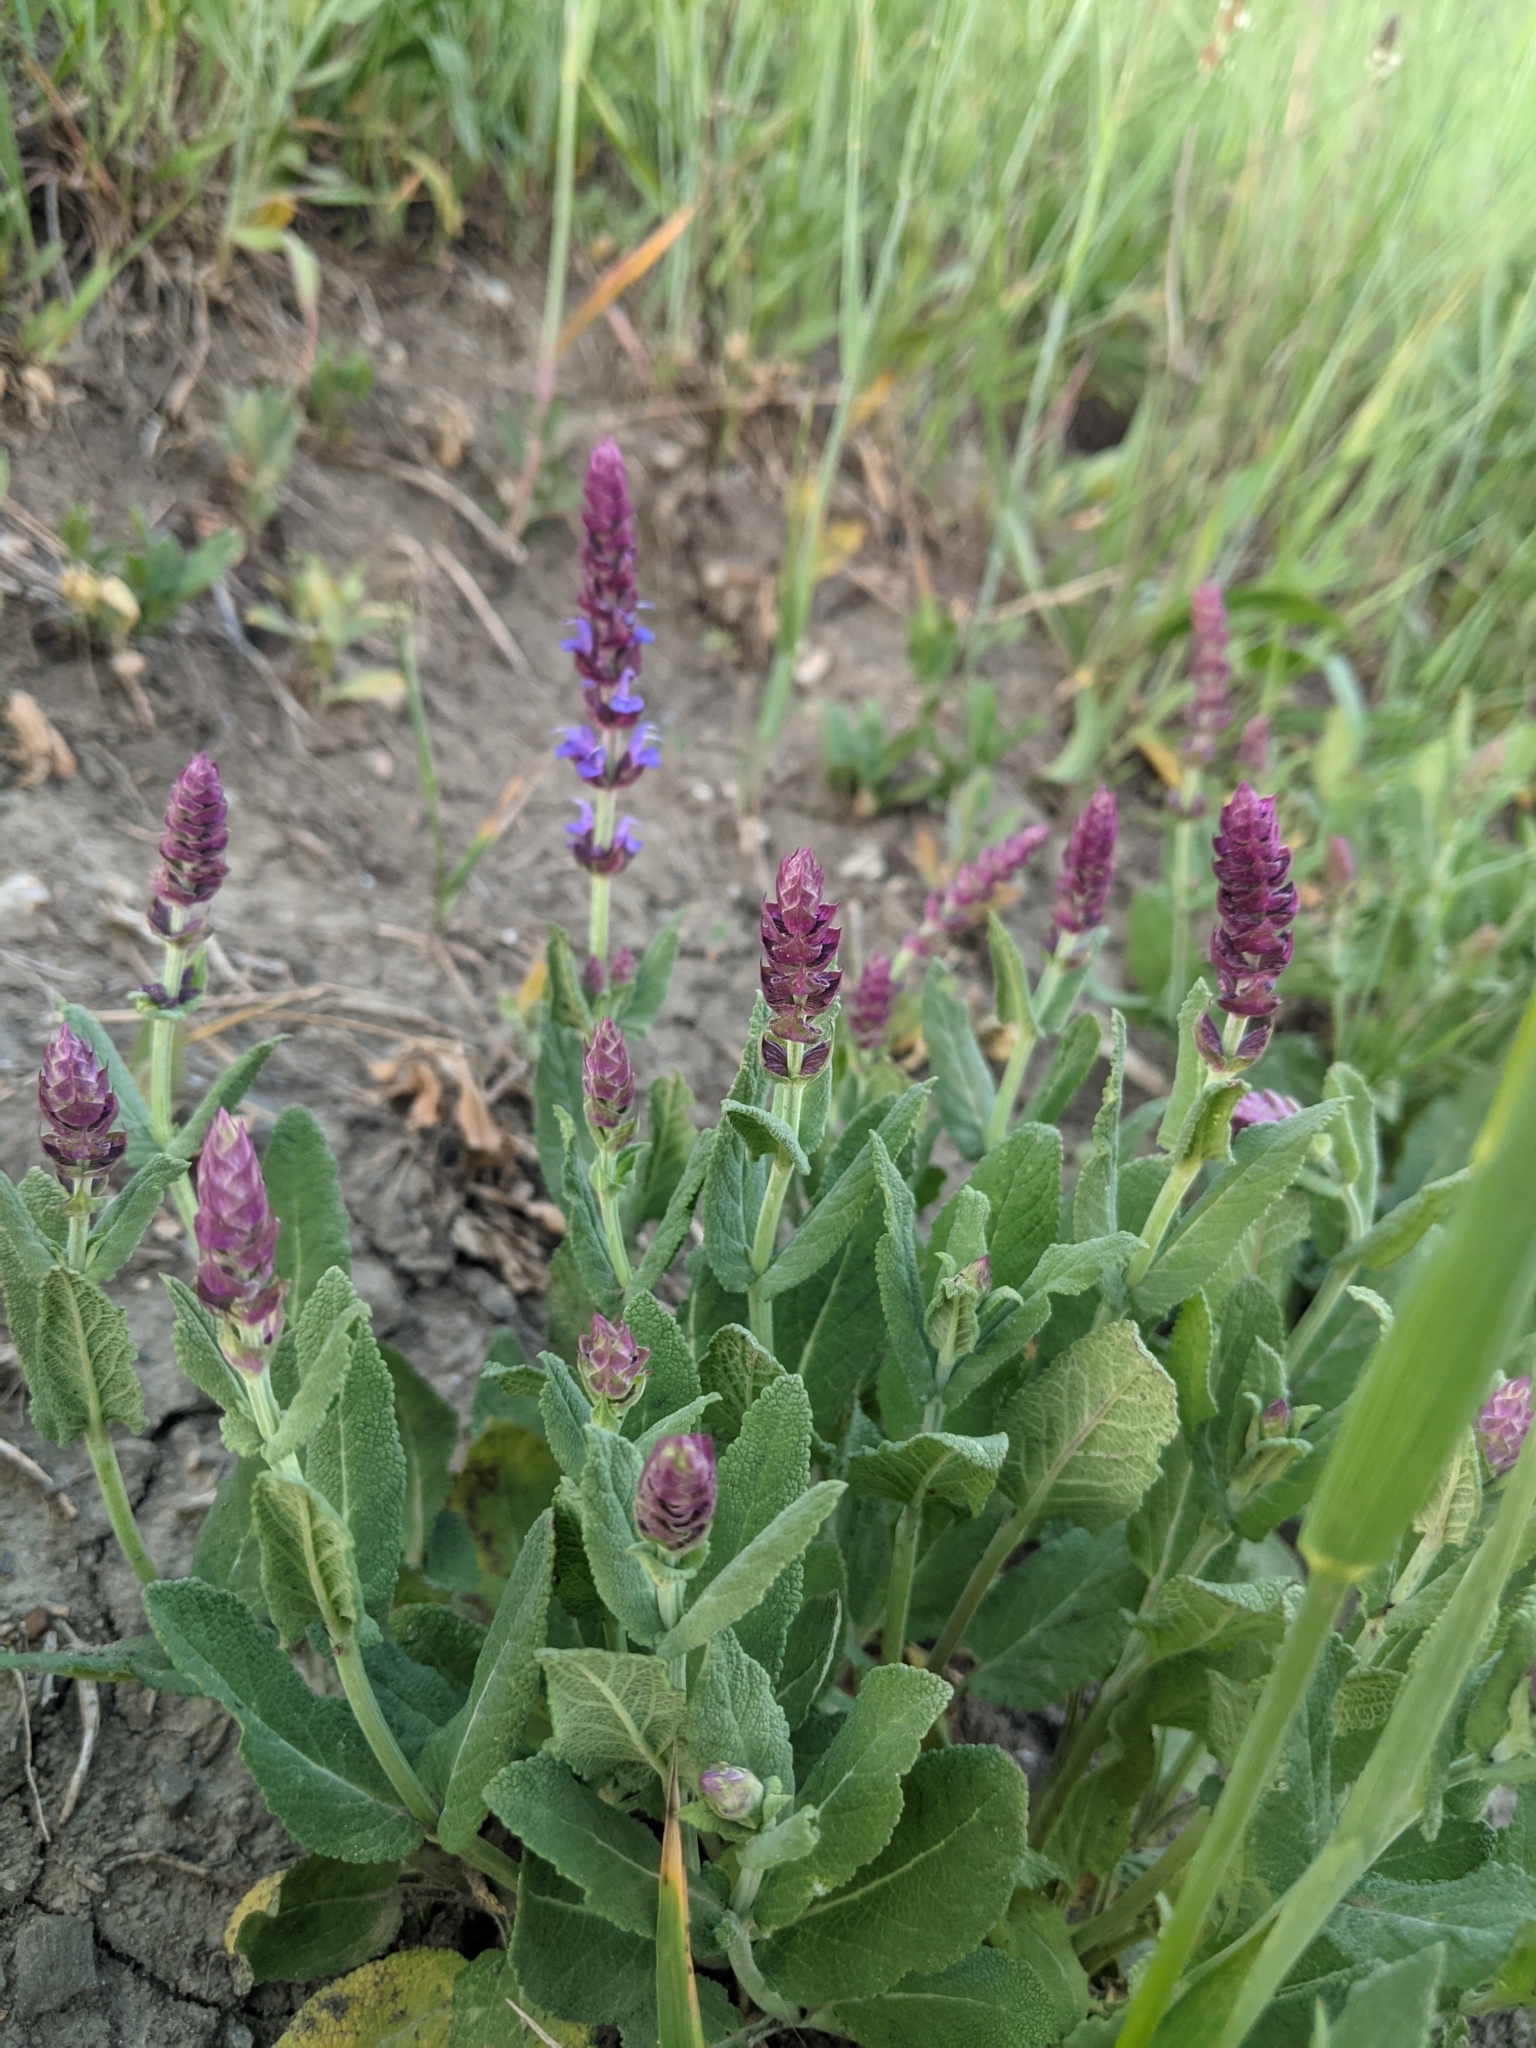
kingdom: Plantae
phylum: Tracheophyta
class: Magnoliopsida
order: Lamiales
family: Lamiaceae
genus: Salvia
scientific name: Salvia nemorosa
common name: Balkan clary
